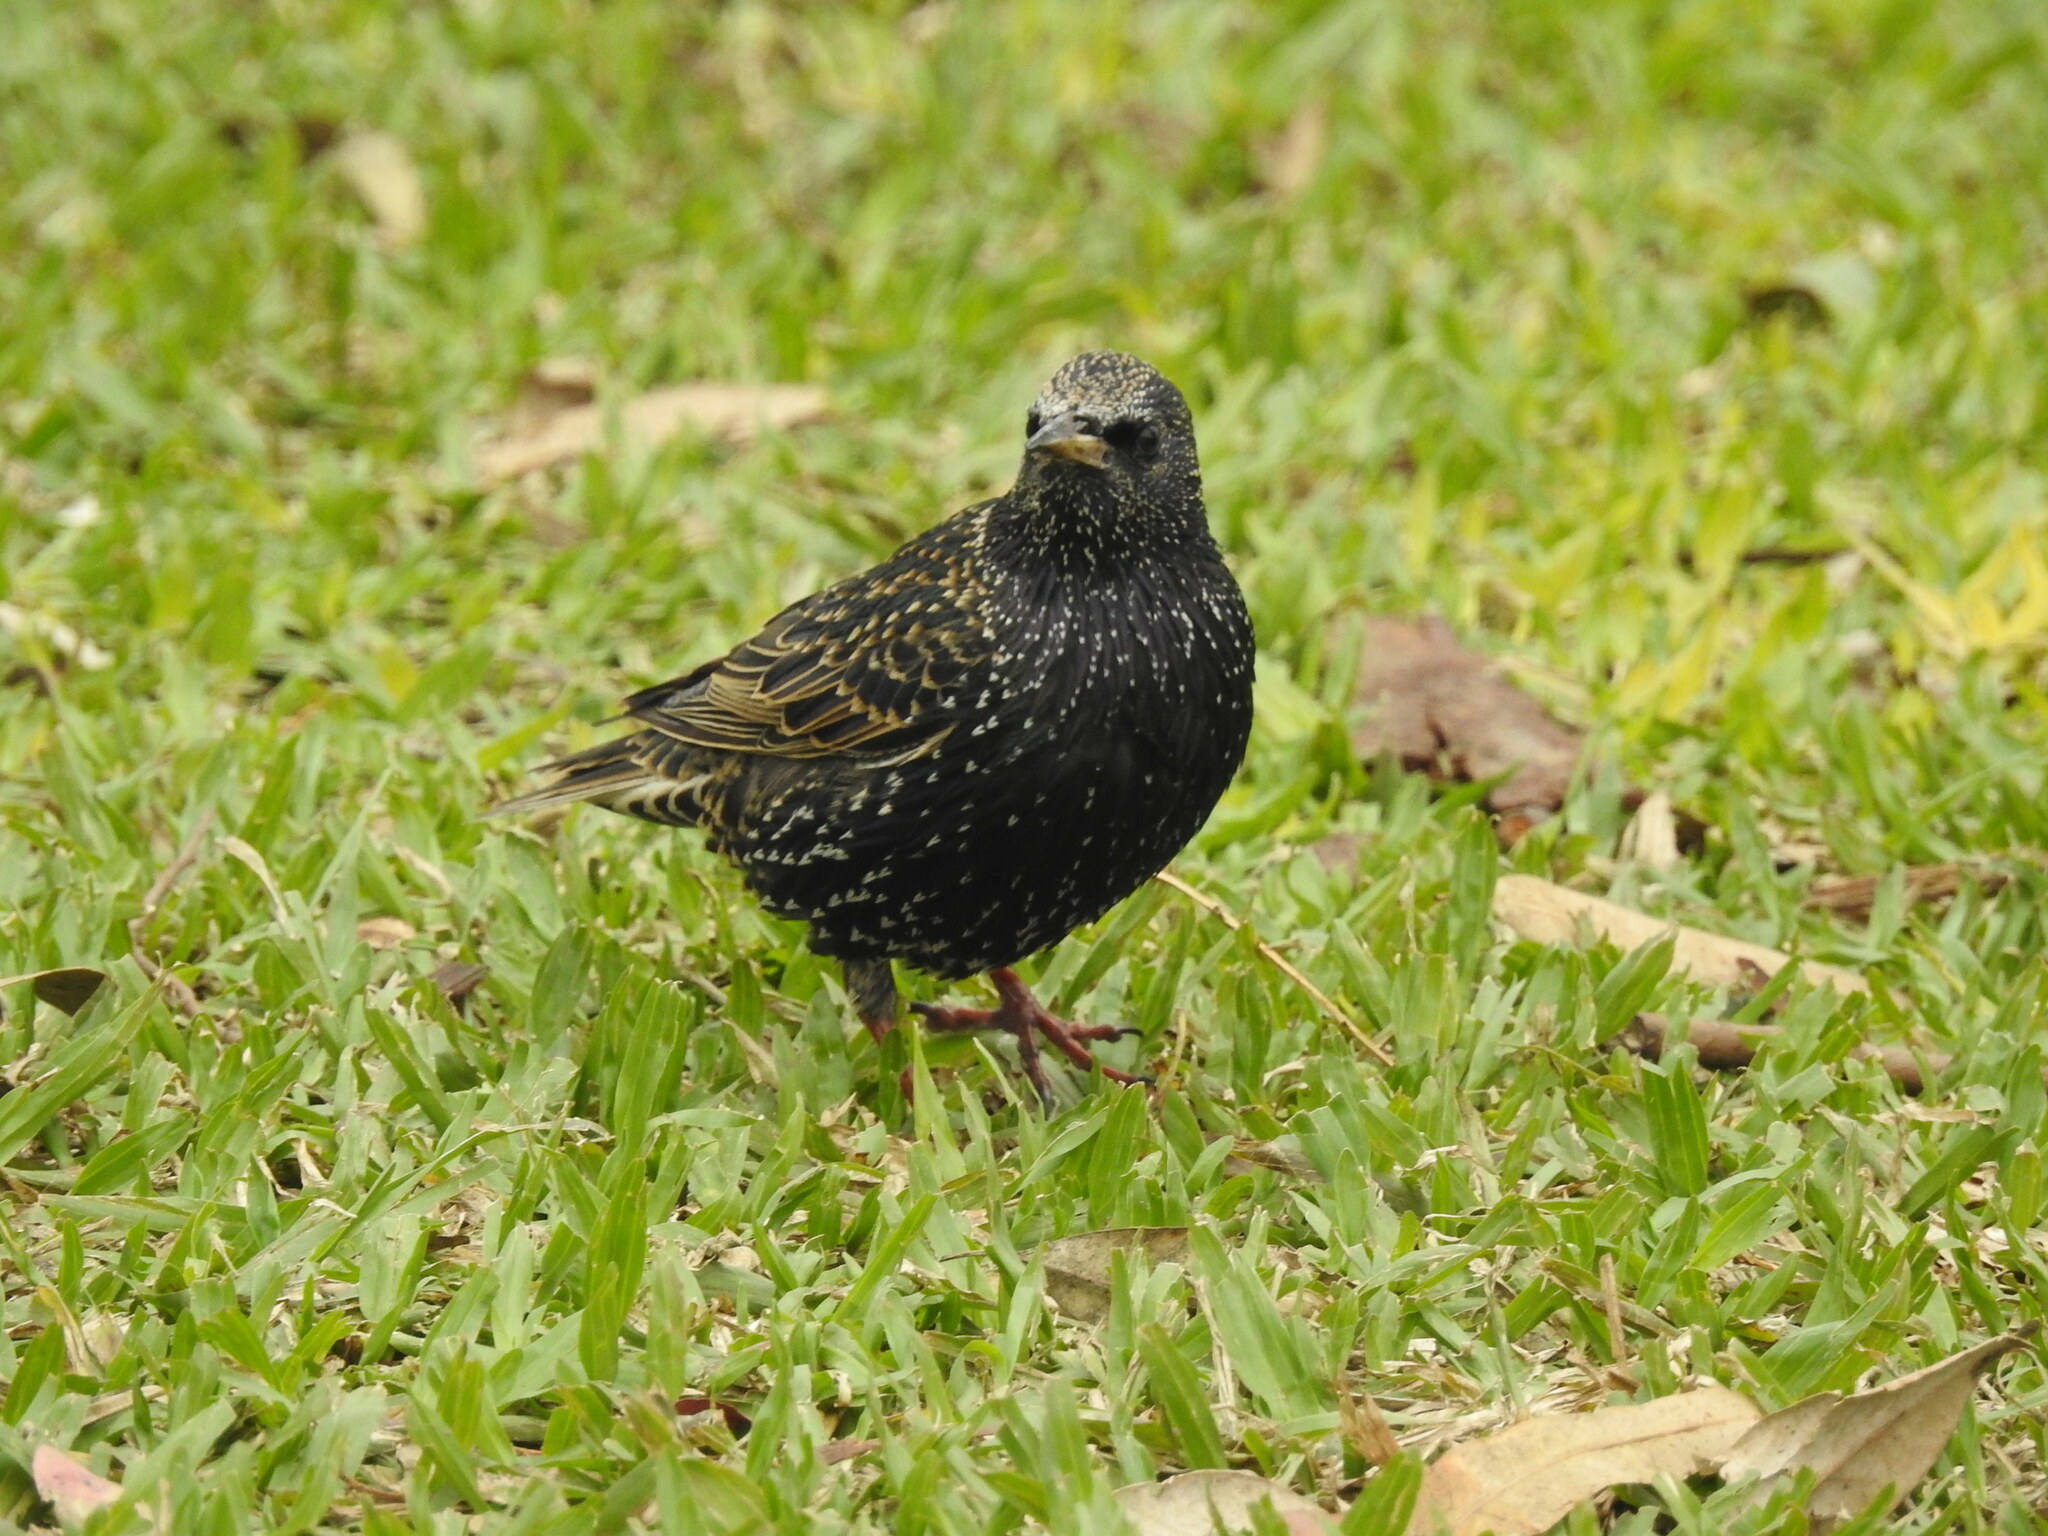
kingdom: Animalia
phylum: Chordata
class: Aves
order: Passeriformes
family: Sturnidae
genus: Sturnus
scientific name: Sturnus vulgaris
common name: Common starling
